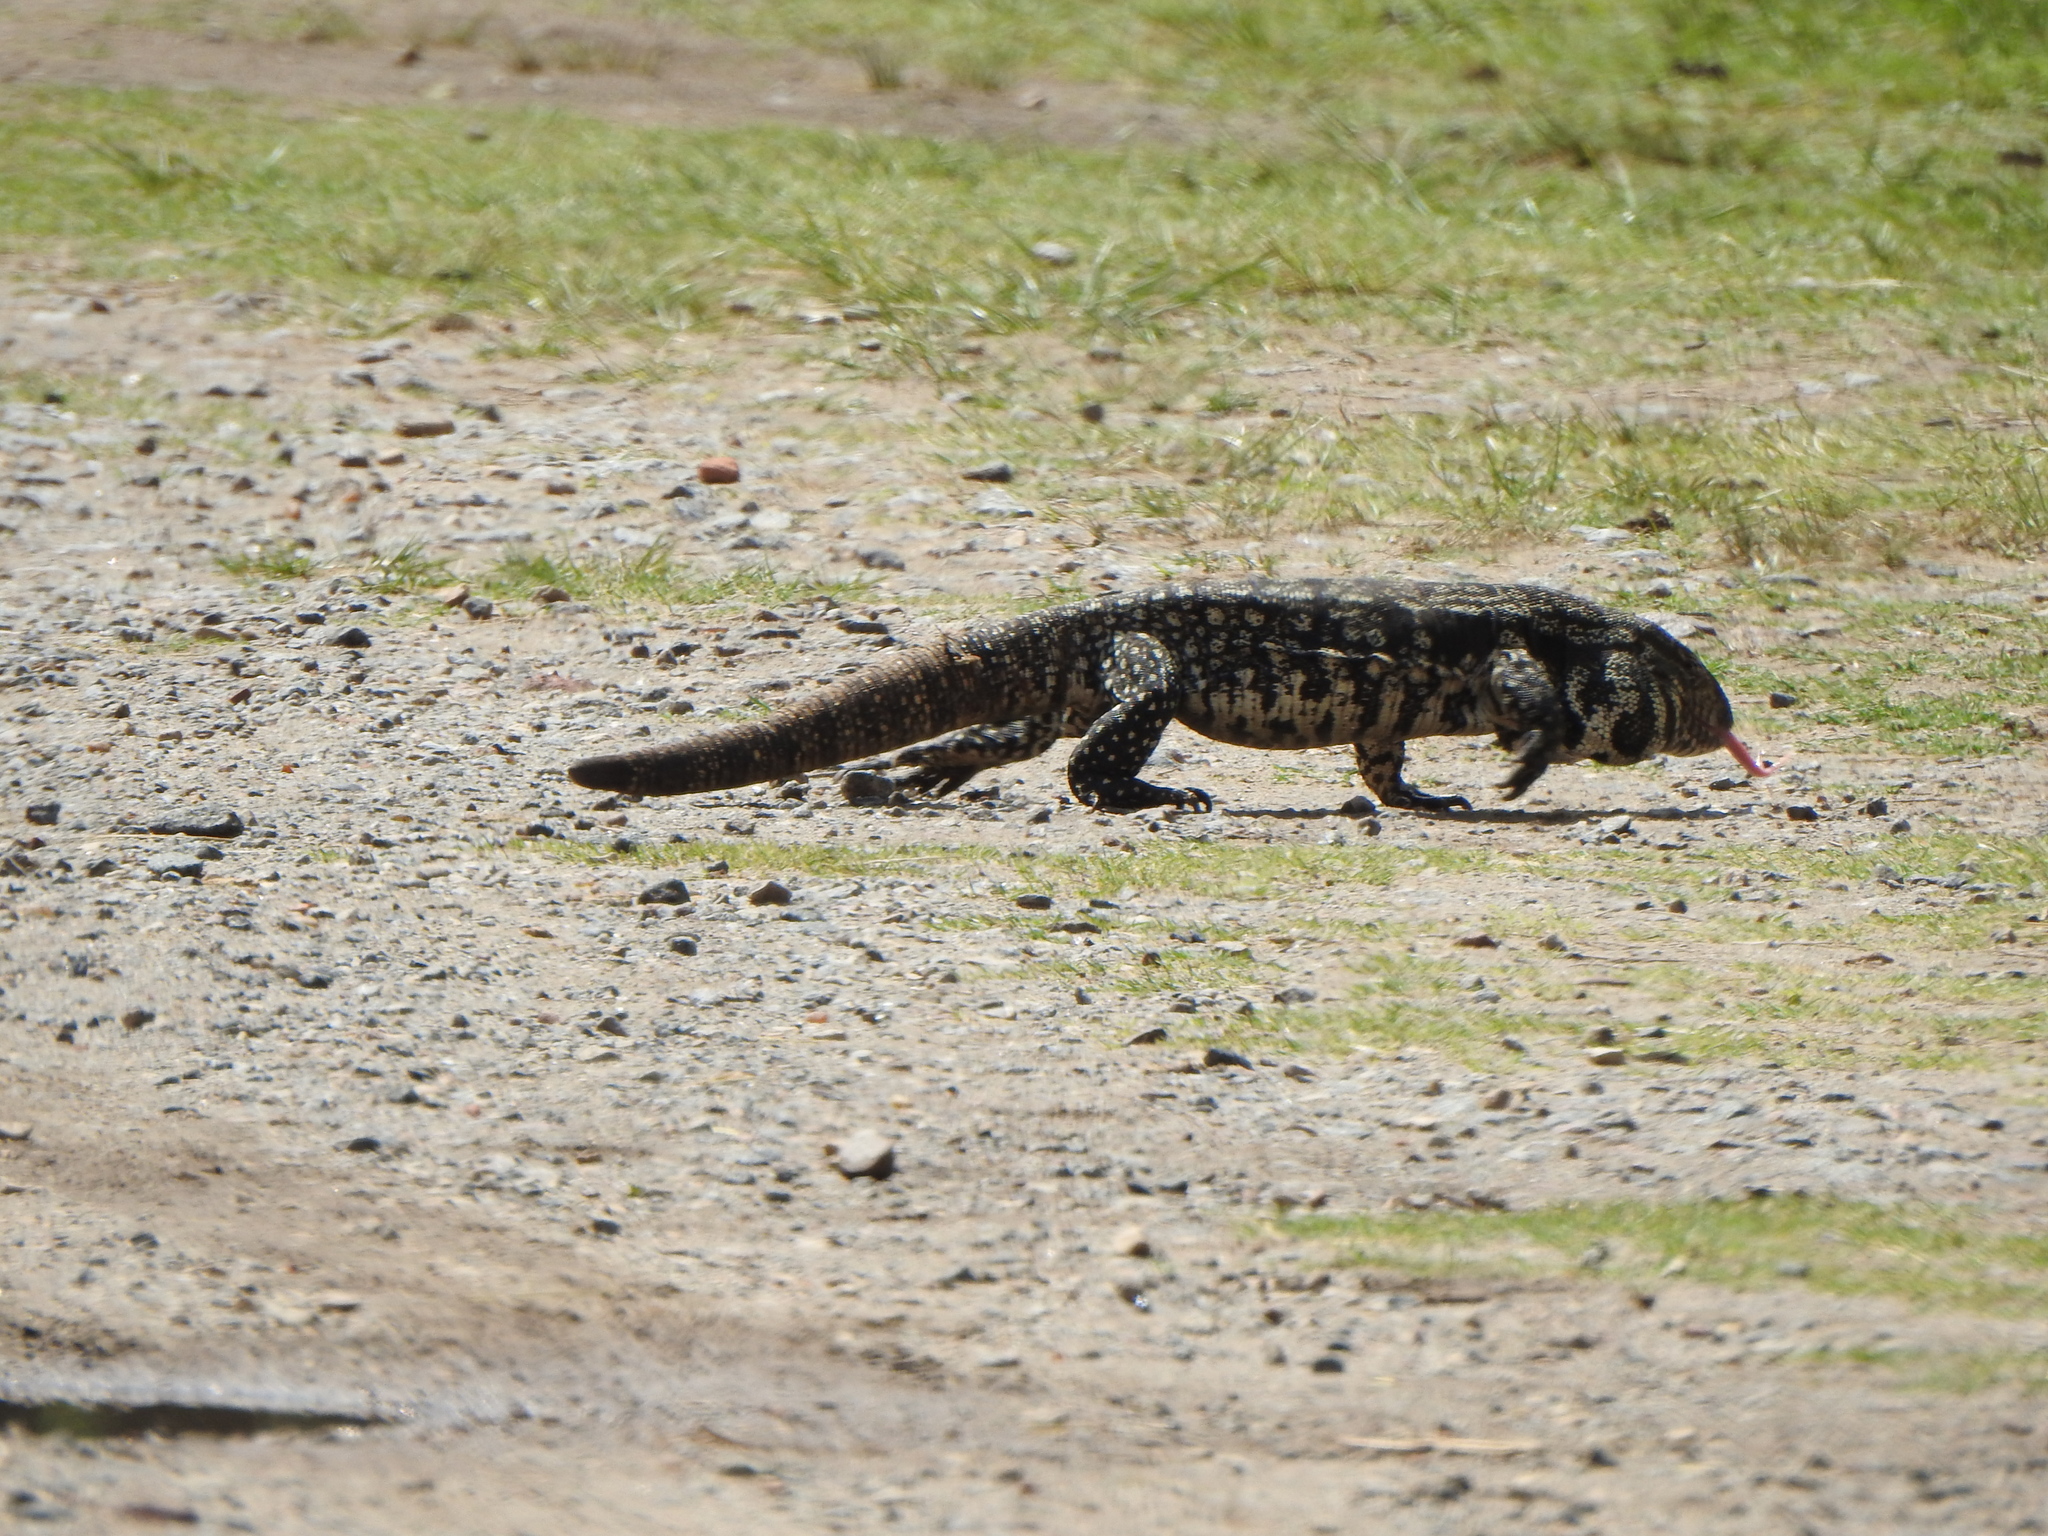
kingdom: Animalia
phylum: Chordata
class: Squamata
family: Teiidae
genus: Salvator
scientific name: Salvator merianae
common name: Argentine black and white tegu
